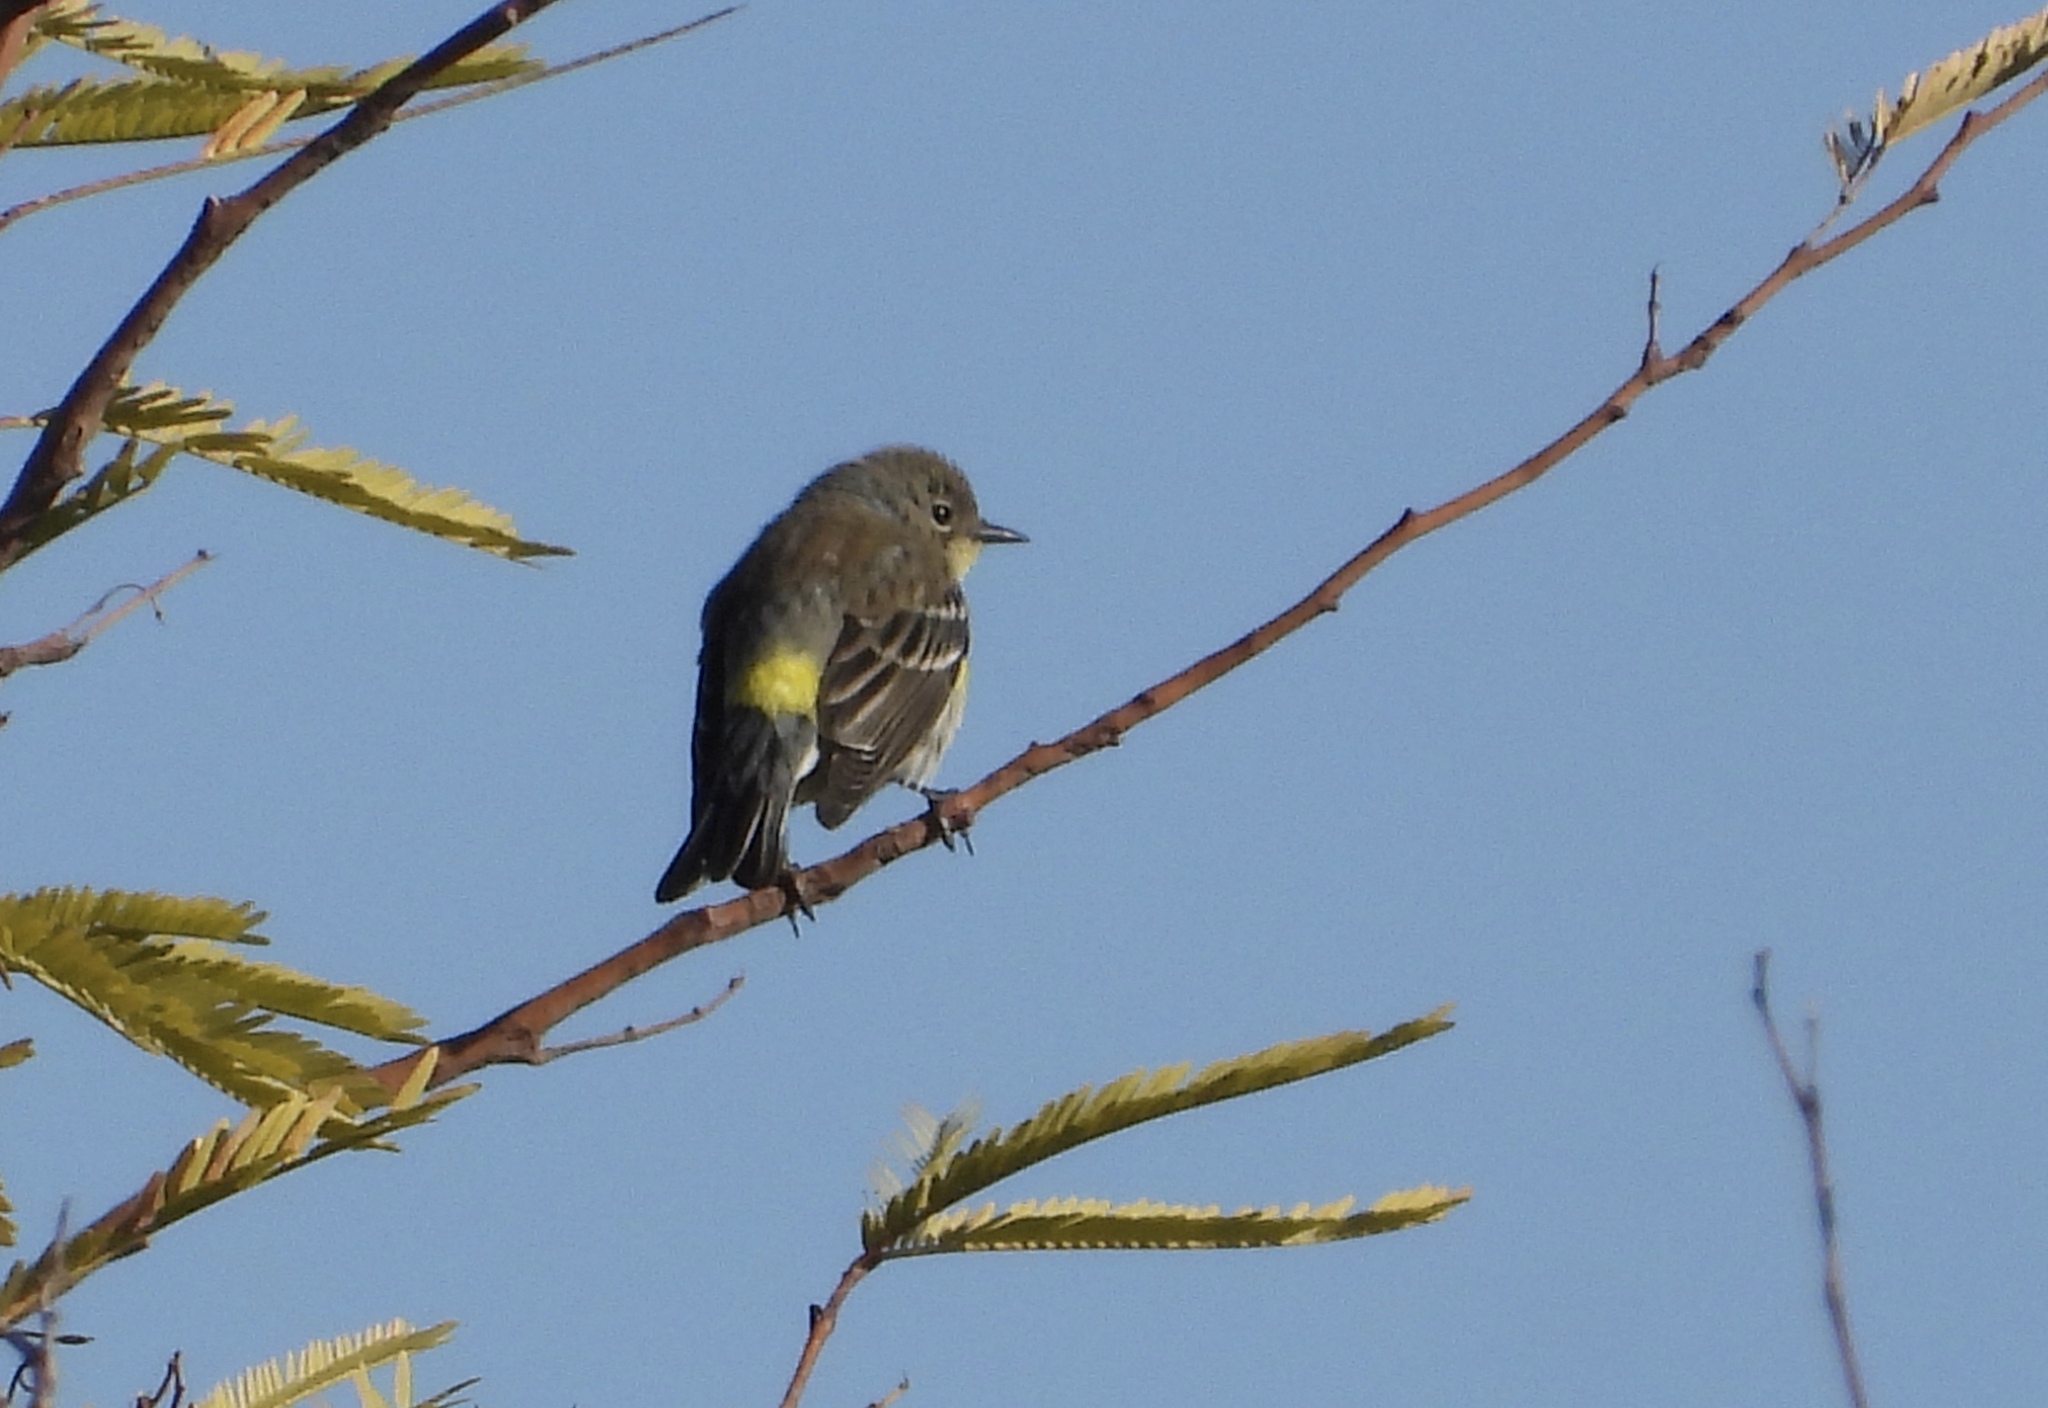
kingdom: Animalia
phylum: Chordata
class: Aves
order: Passeriformes
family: Parulidae
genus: Setophaga
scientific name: Setophaga coronata
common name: Myrtle warbler
